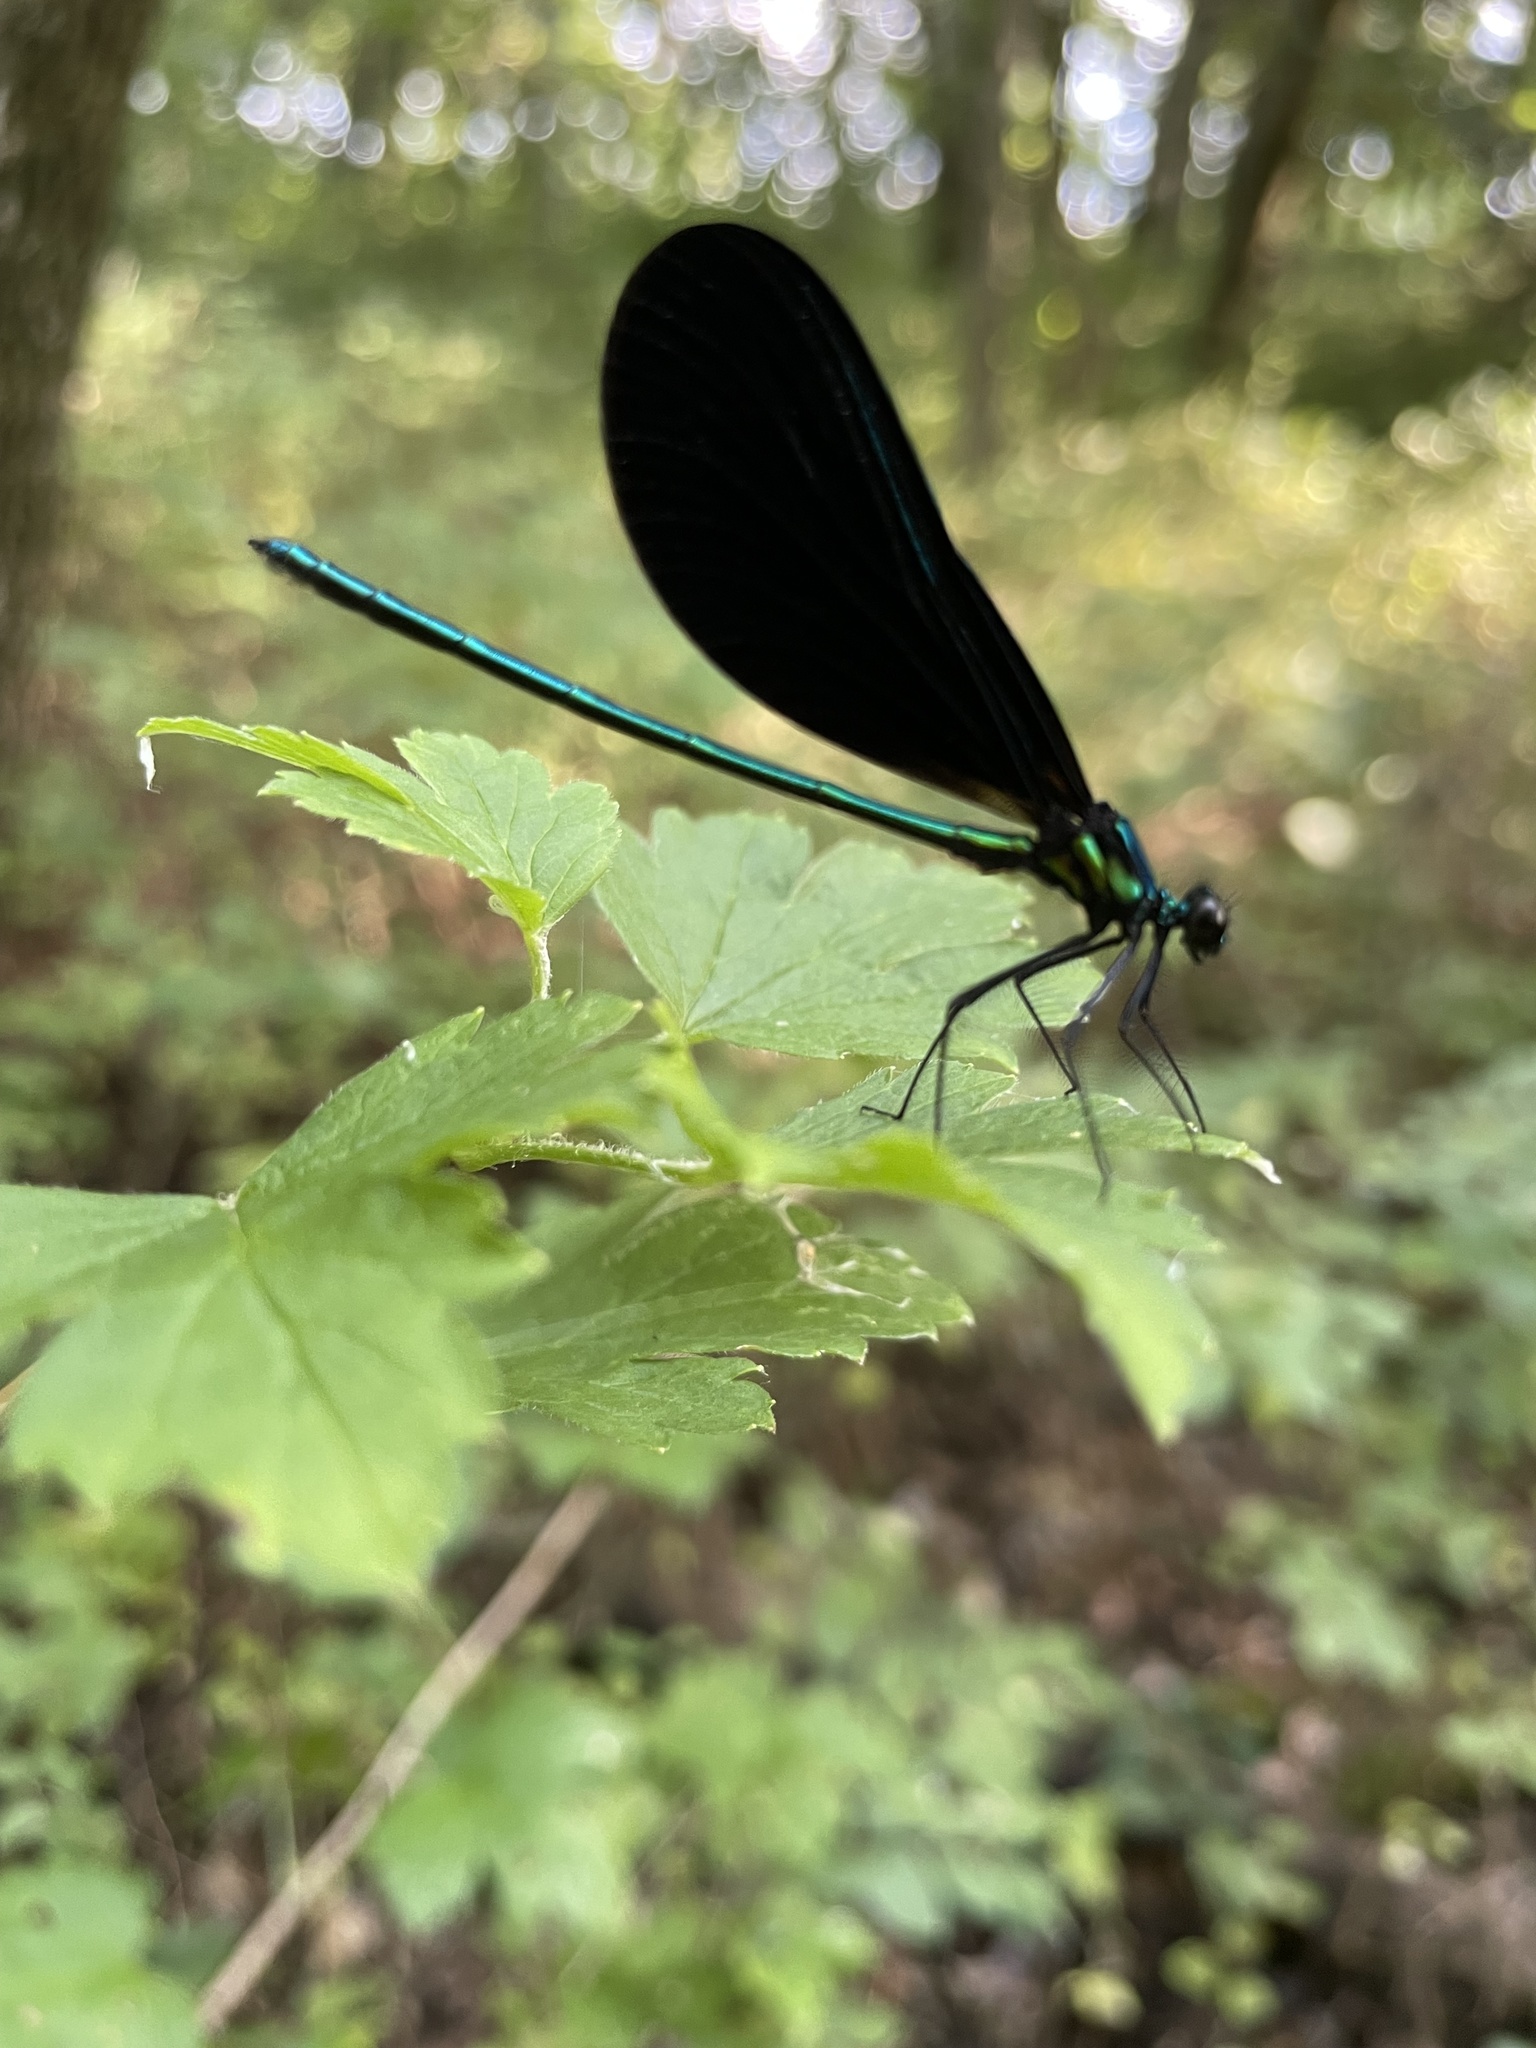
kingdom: Animalia
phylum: Arthropoda
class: Insecta
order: Odonata
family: Calopterygidae
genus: Calopteryx
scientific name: Calopteryx maculata
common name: Ebony jewelwing
